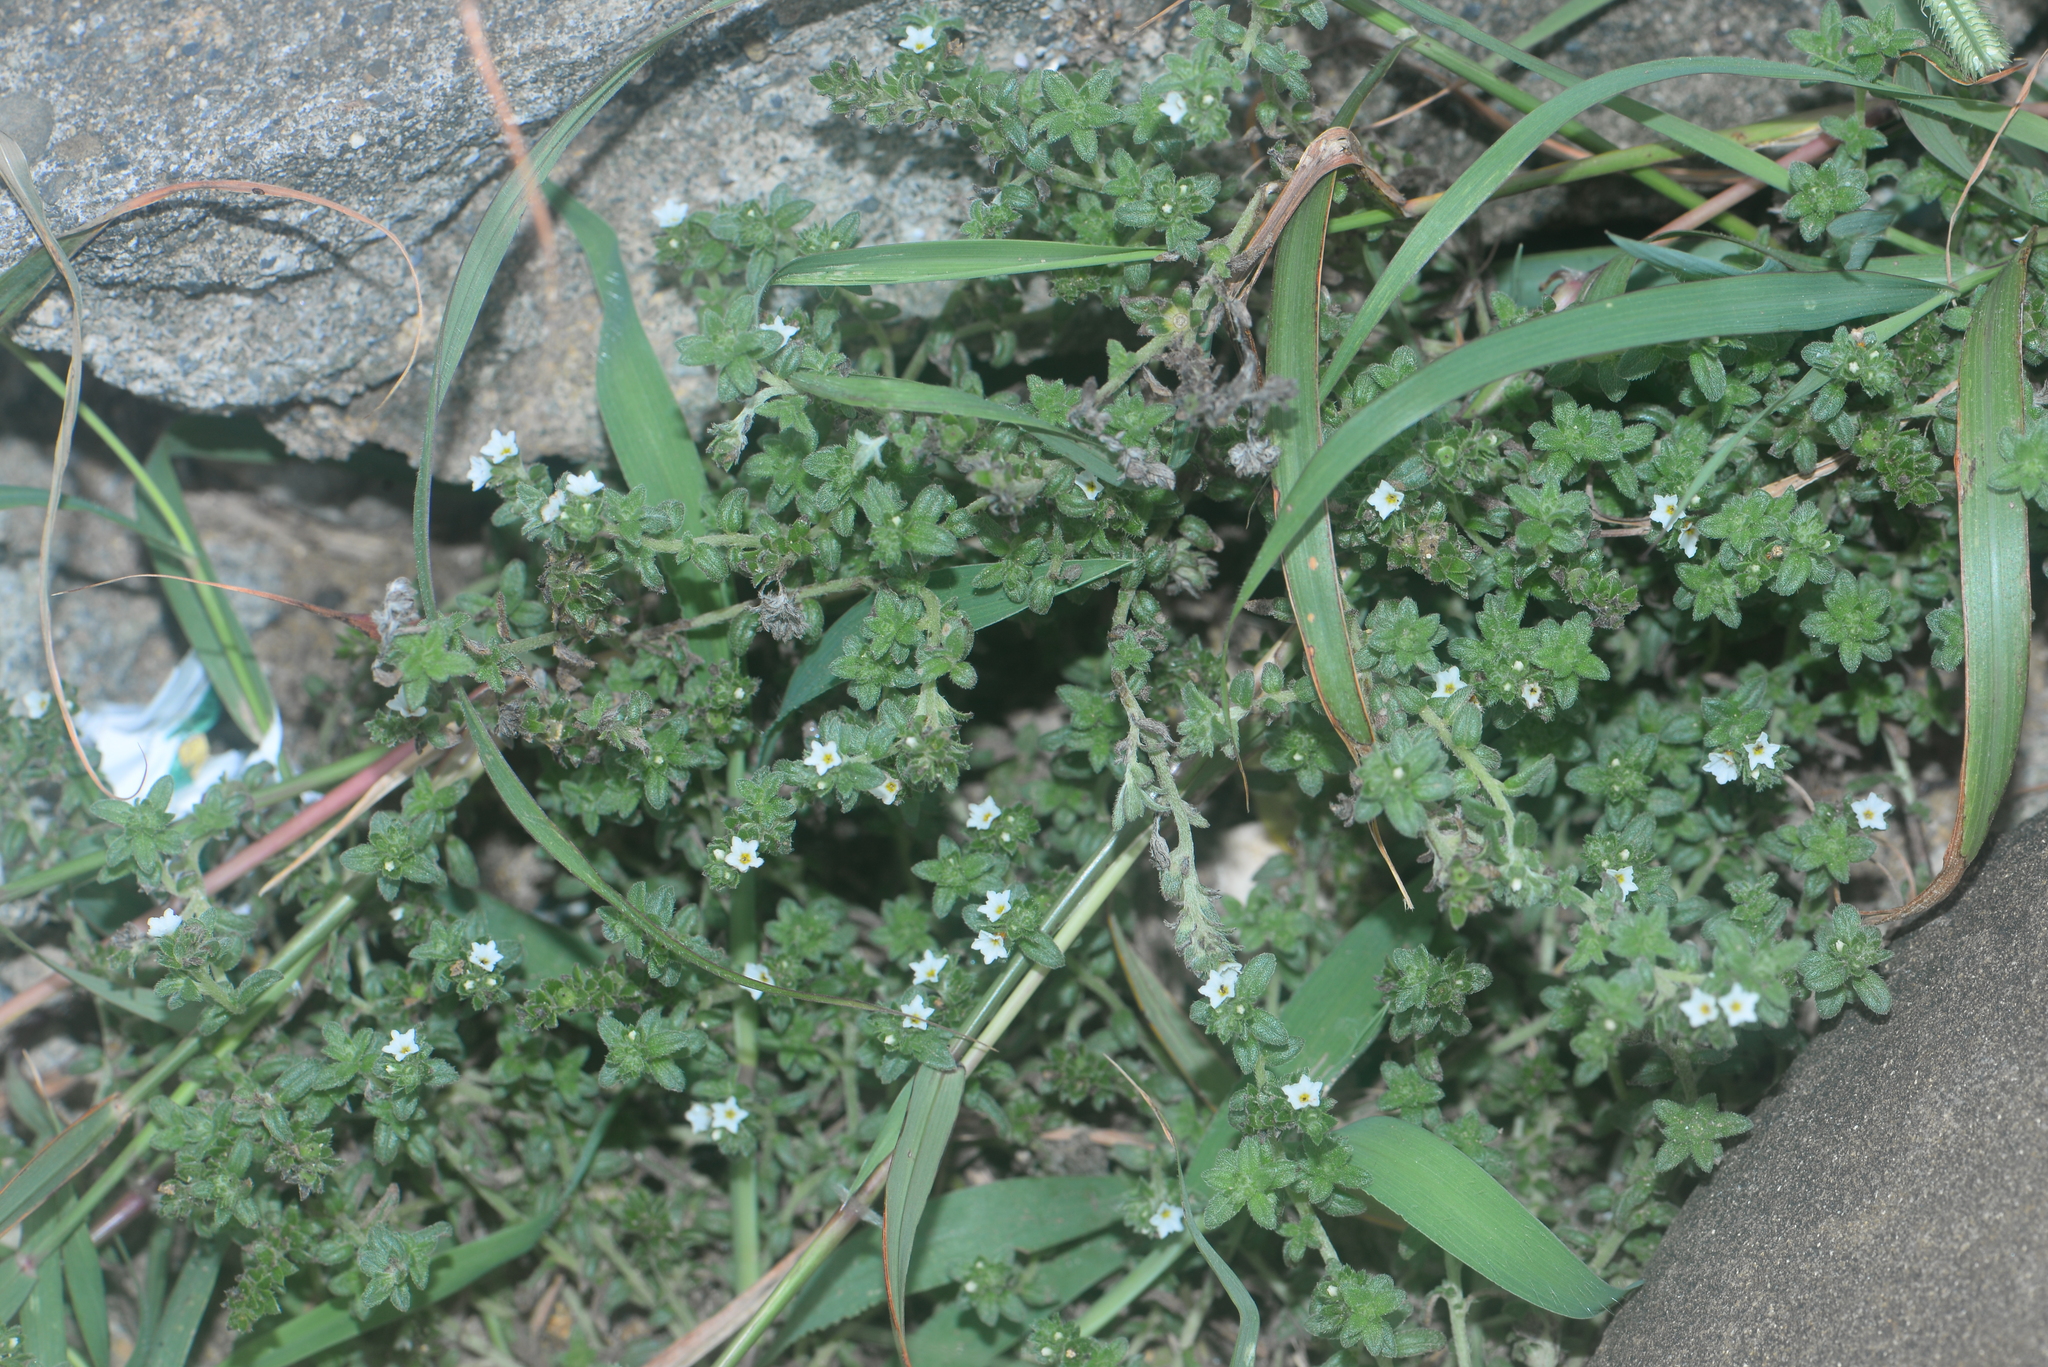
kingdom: Plantae
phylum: Tracheophyta
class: Magnoliopsida
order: Boraginales
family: Heliotropiaceae
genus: Heliotropium
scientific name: Heliotropium formosanum
